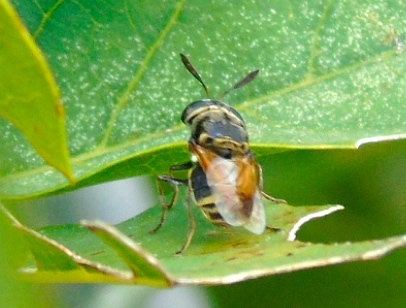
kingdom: Animalia
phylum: Arthropoda
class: Insecta
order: Diptera
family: Stratiomyidae
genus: Hoplitimyia
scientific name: Hoplitimyia
